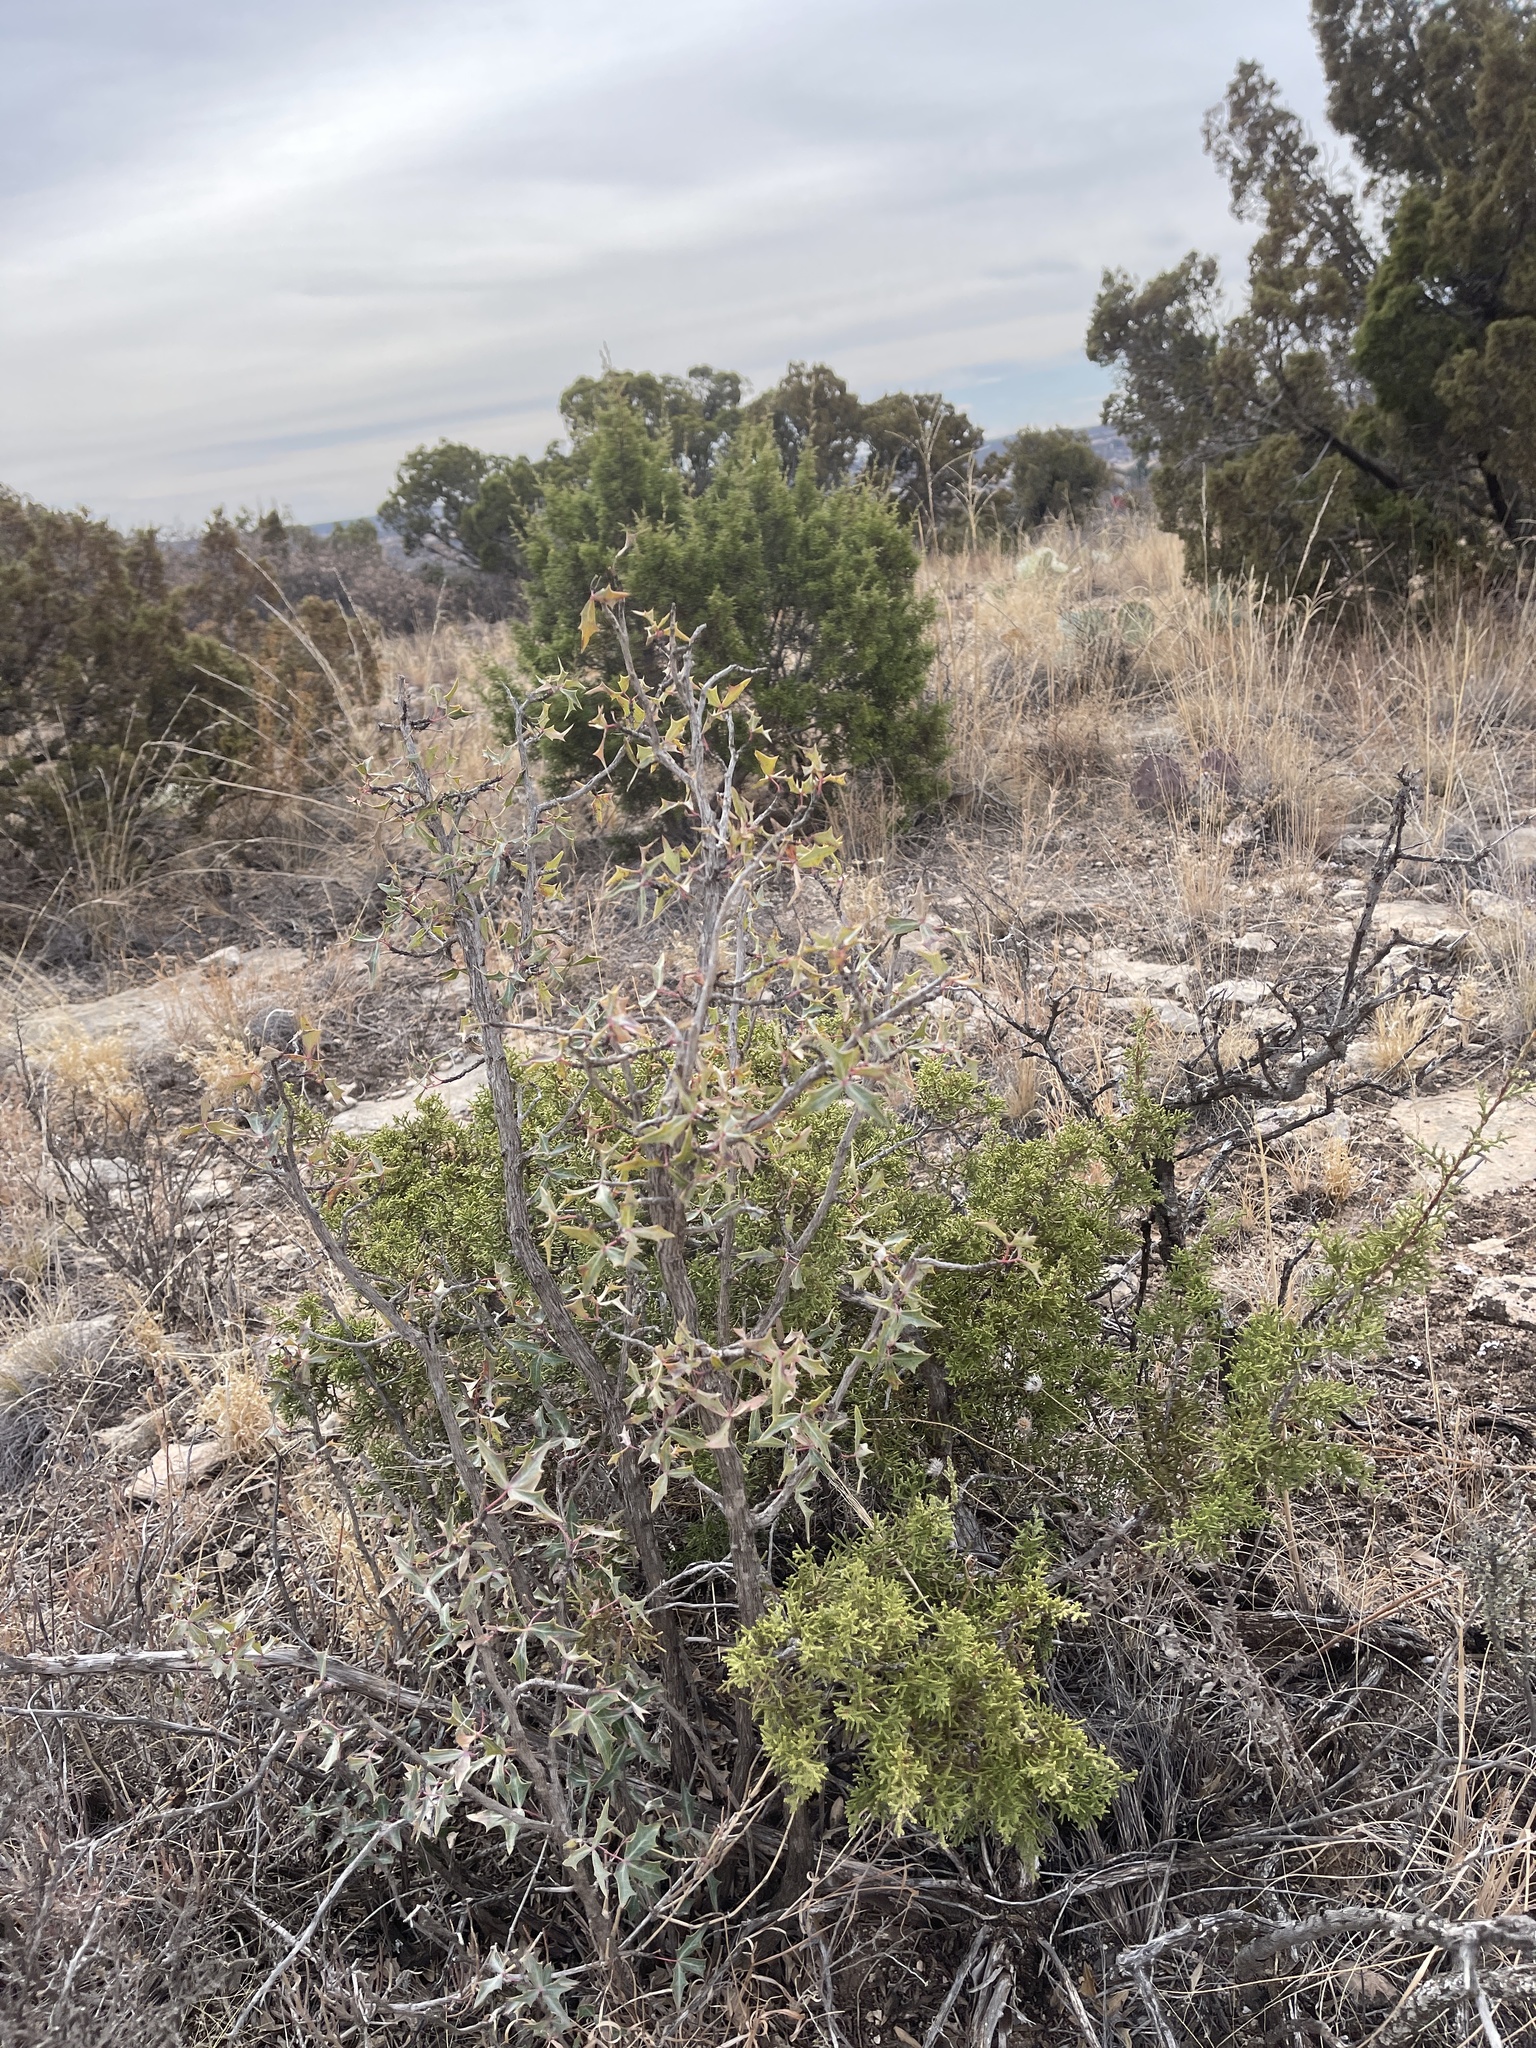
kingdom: Plantae
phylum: Tracheophyta
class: Magnoliopsida
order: Ranunculales
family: Berberidaceae
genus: Alloberberis
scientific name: Alloberberis trifoliolata
